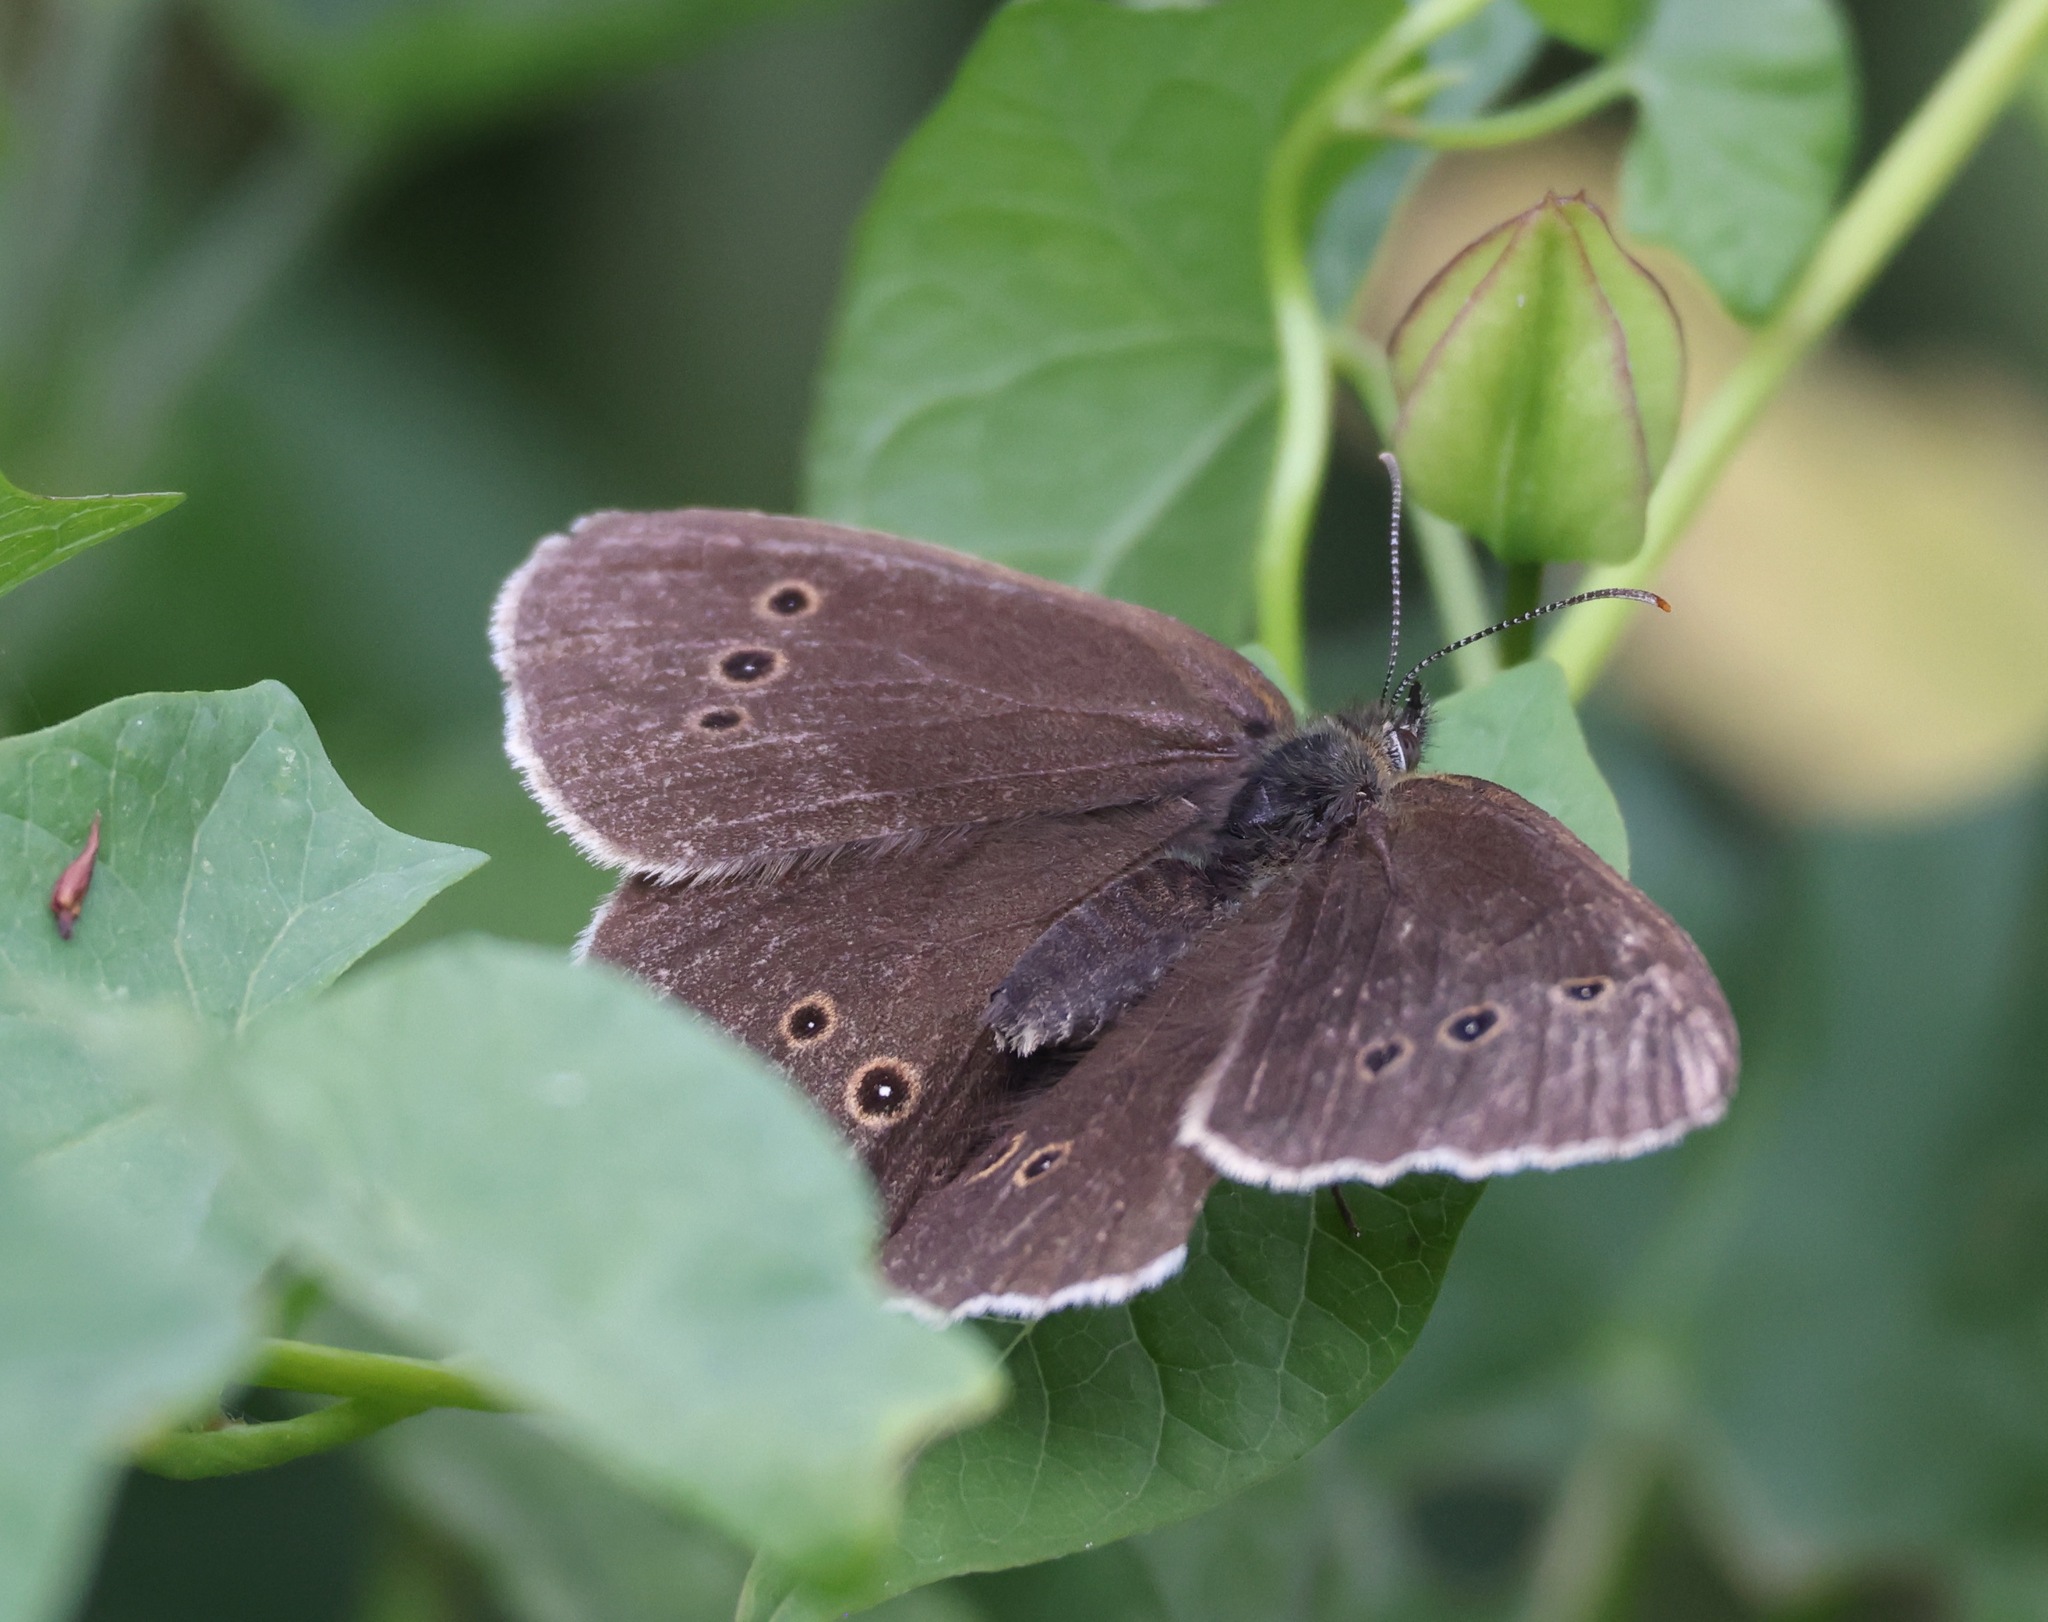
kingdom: Animalia
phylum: Arthropoda
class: Insecta
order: Lepidoptera
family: Nymphalidae
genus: Aphantopus
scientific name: Aphantopus hyperantus
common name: Ringlet
